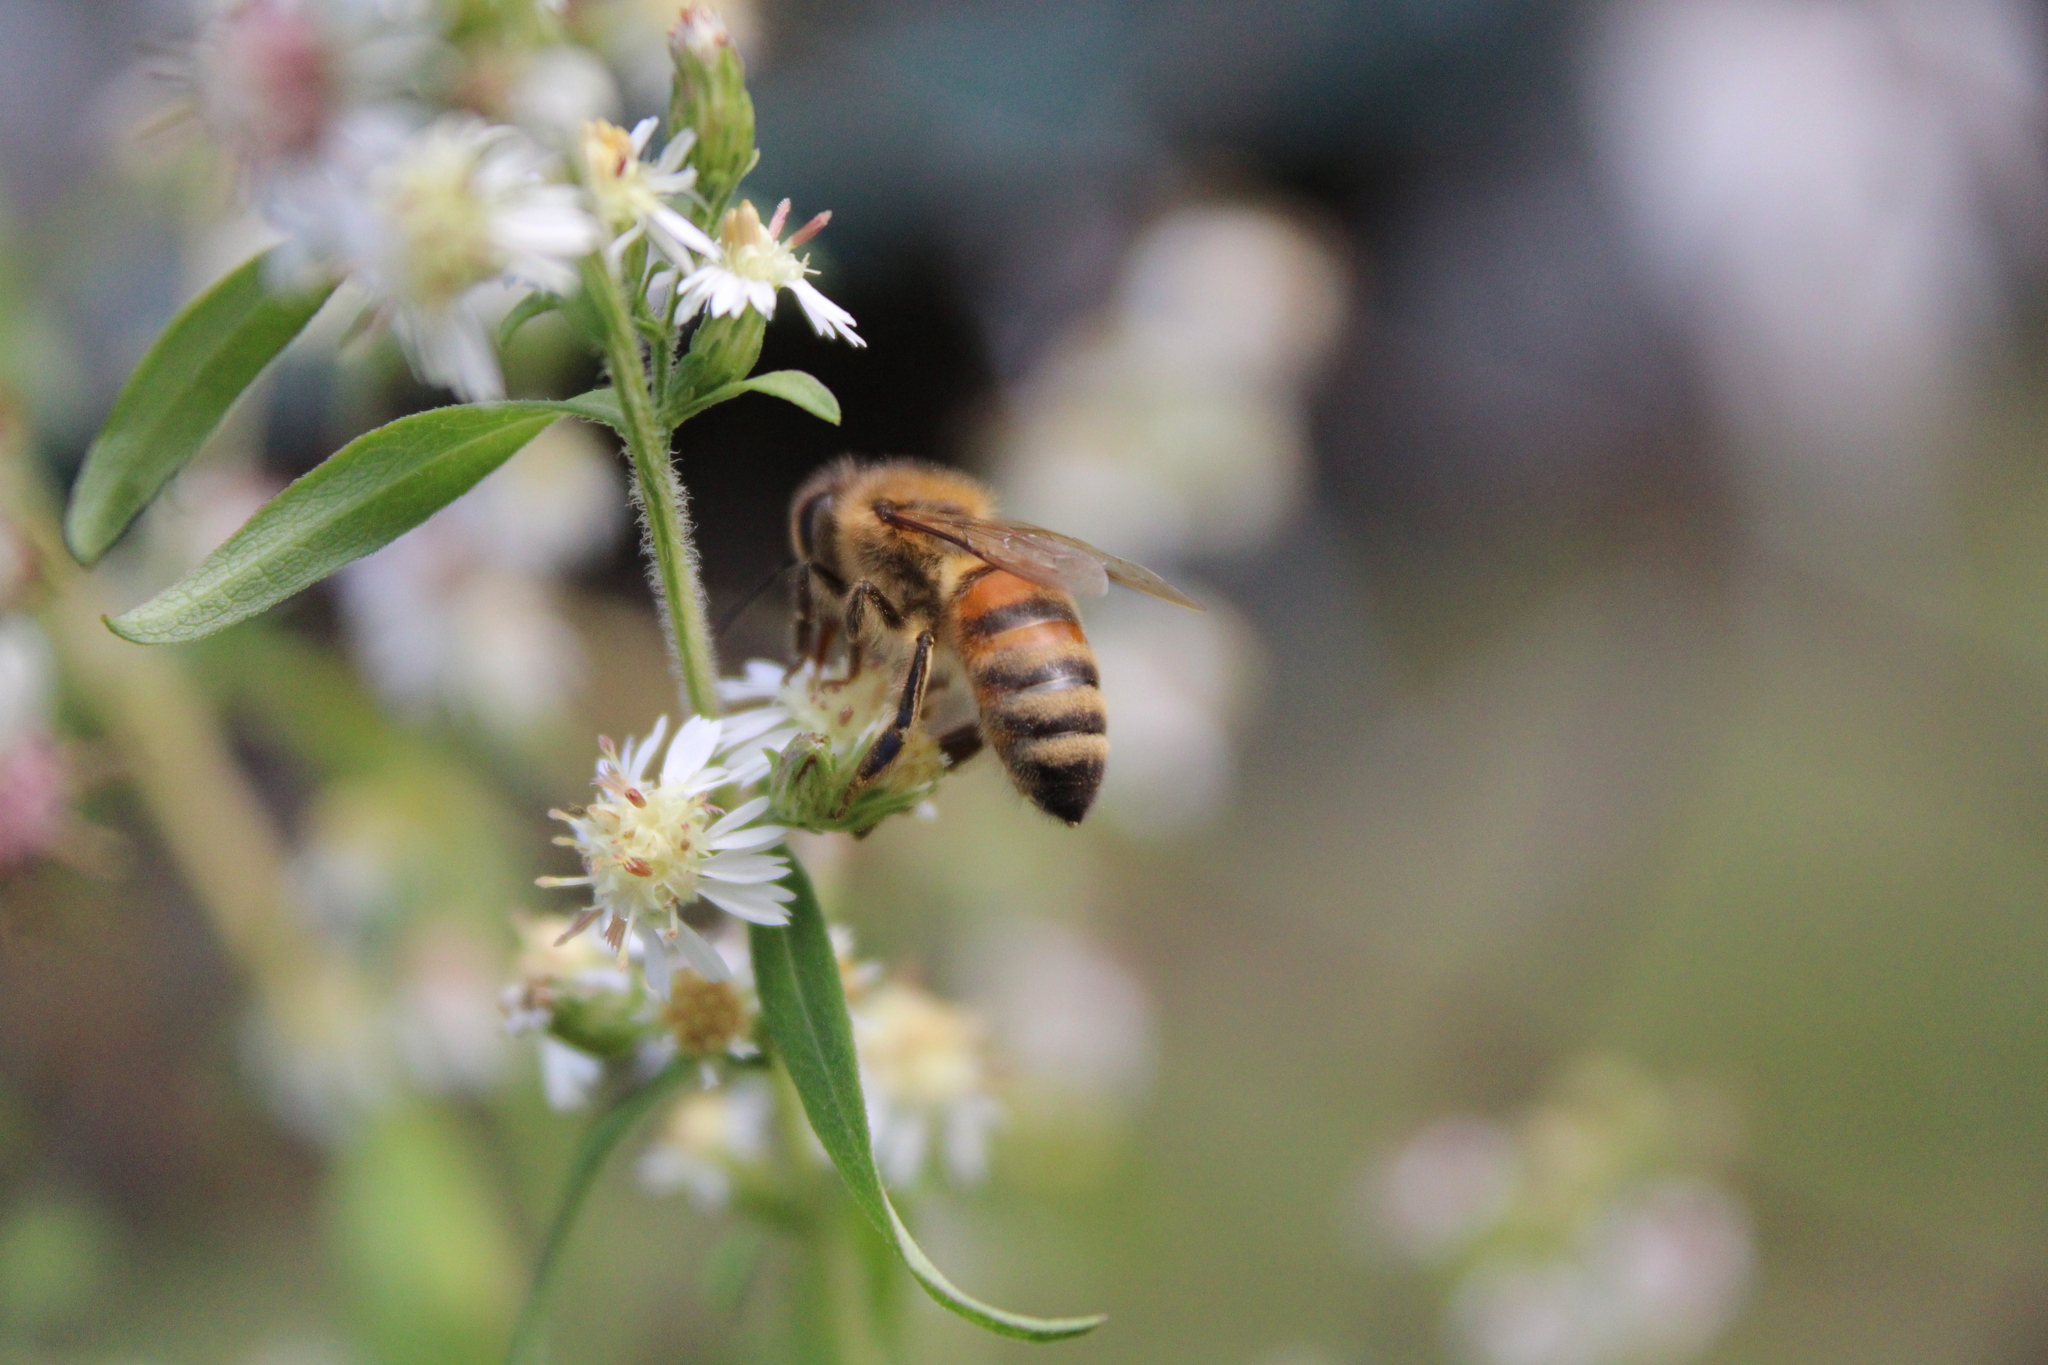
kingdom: Animalia
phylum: Arthropoda
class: Insecta
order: Hymenoptera
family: Apidae
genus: Apis
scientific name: Apis mellifera
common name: Honey bee
